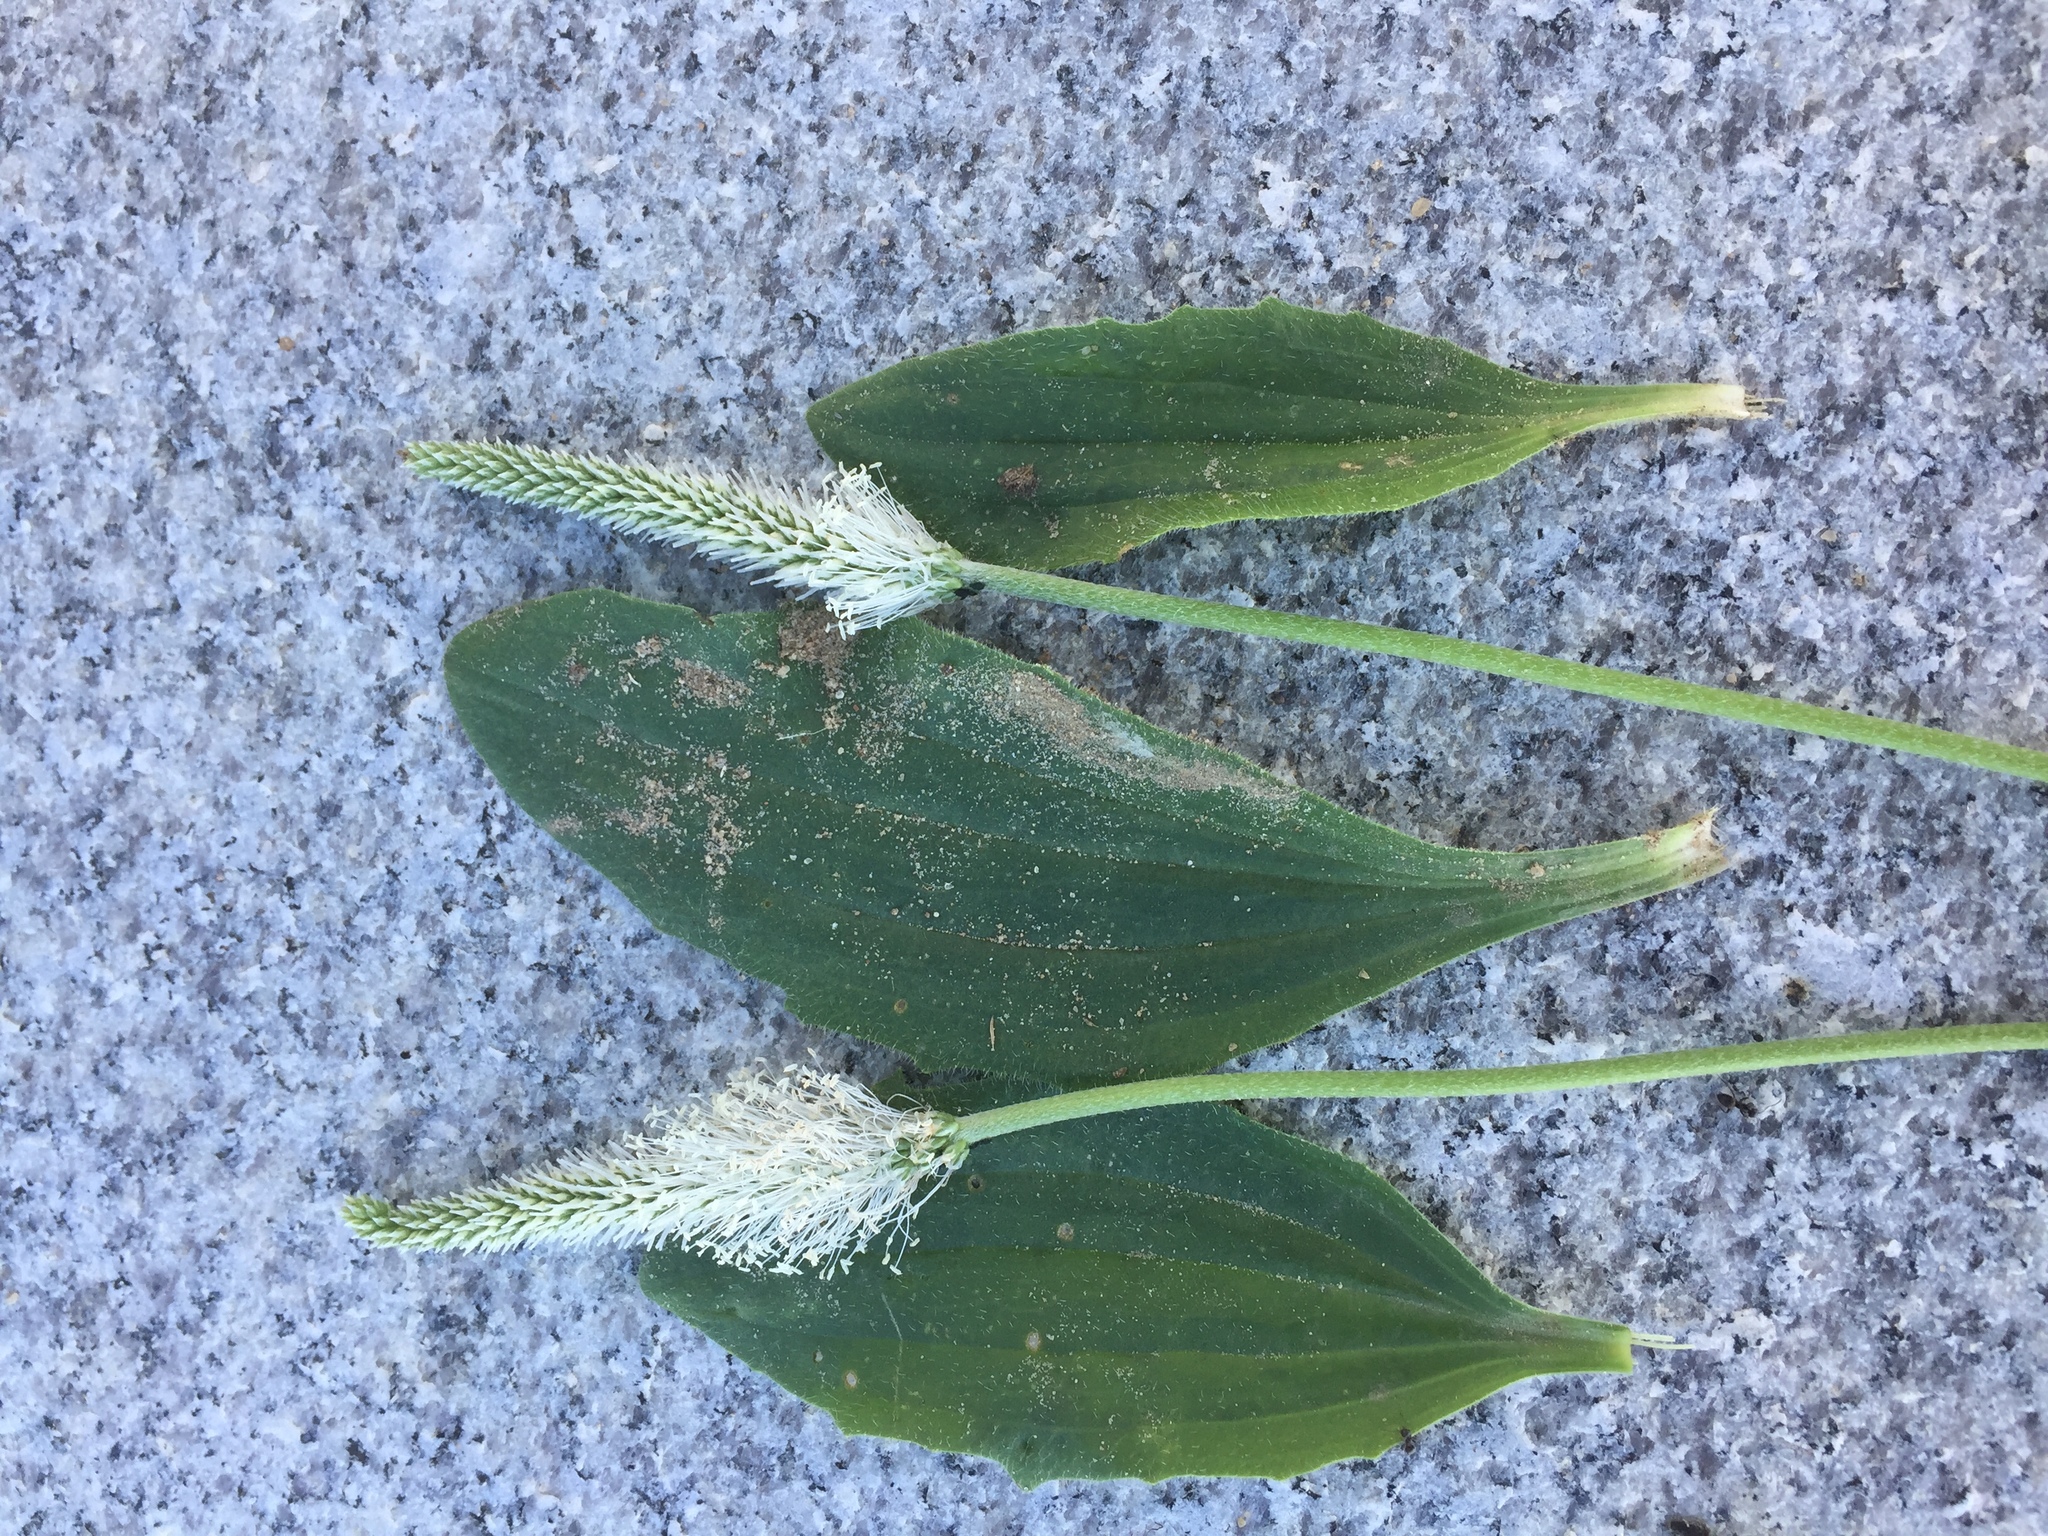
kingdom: Plantae
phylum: Tracheophyta
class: Magnoliopsida
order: Lamiales
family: Plantaginaceae
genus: Plantago
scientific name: Plantago media
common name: Hoary plantain
